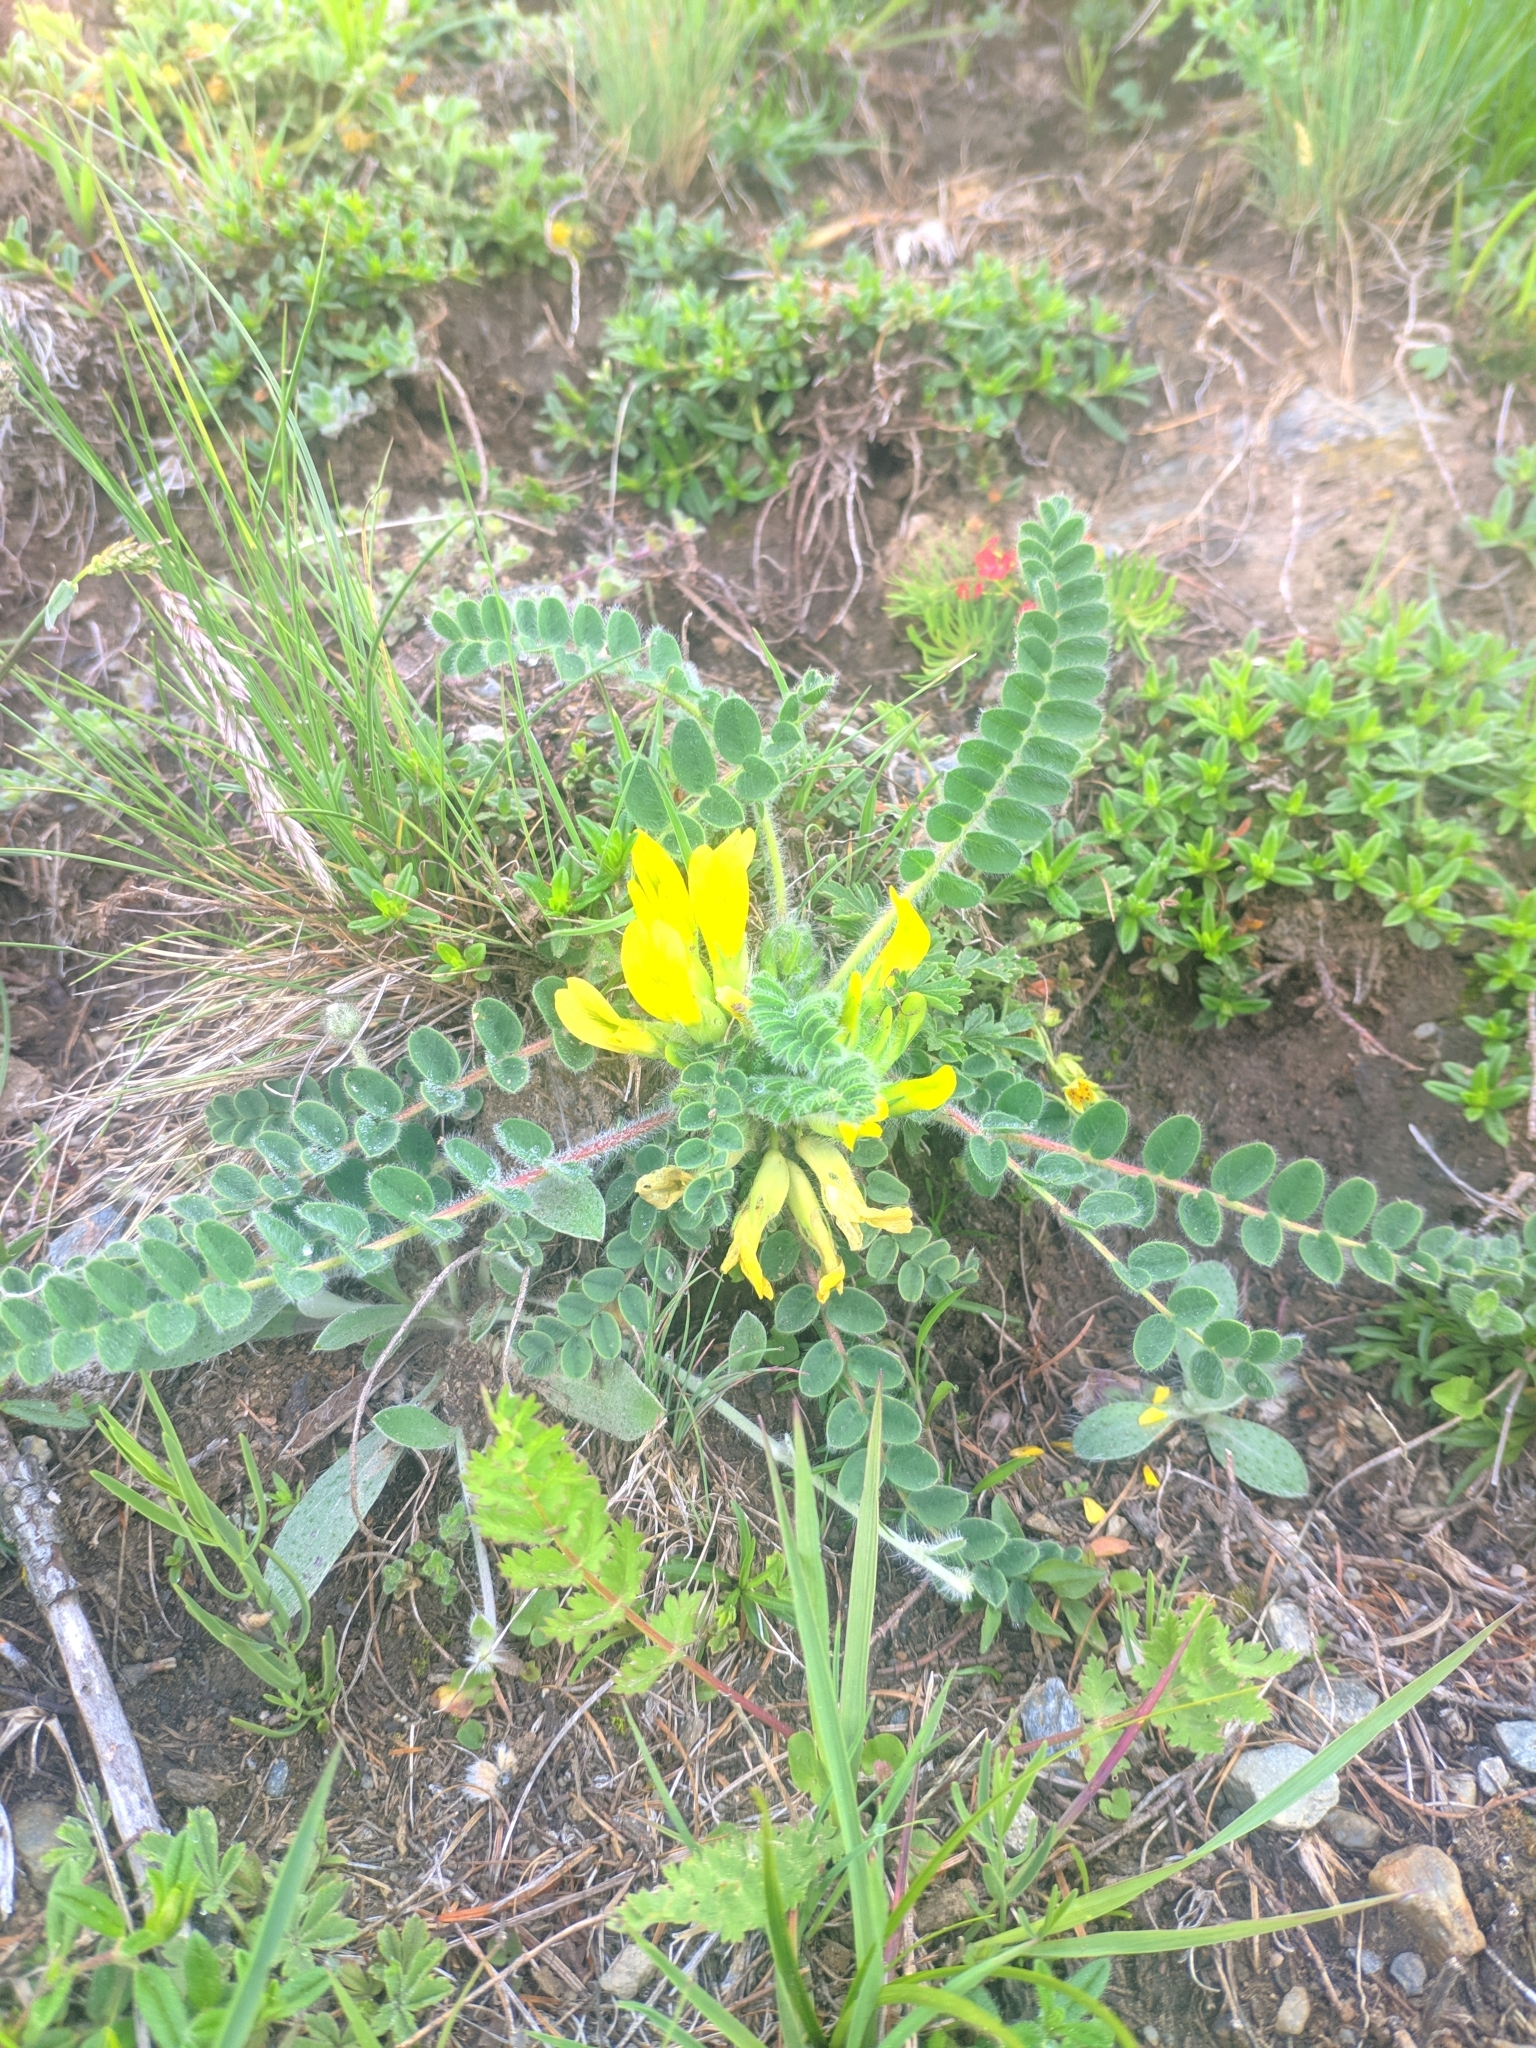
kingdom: Plantae
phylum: Tracheophyta
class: Magnoliopsida
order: Fabales
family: Fabaceae
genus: Astragalus
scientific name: Astragalus exscapus
